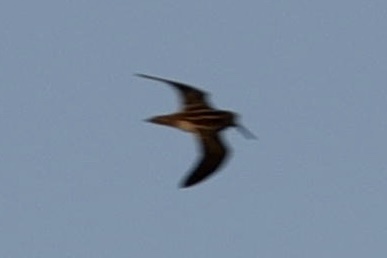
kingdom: Animalia
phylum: Chordata
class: Aves
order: Charadriiformes
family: Scolopacidae
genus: Gallinago
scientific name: Gallinago gallinago
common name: Common snipe
